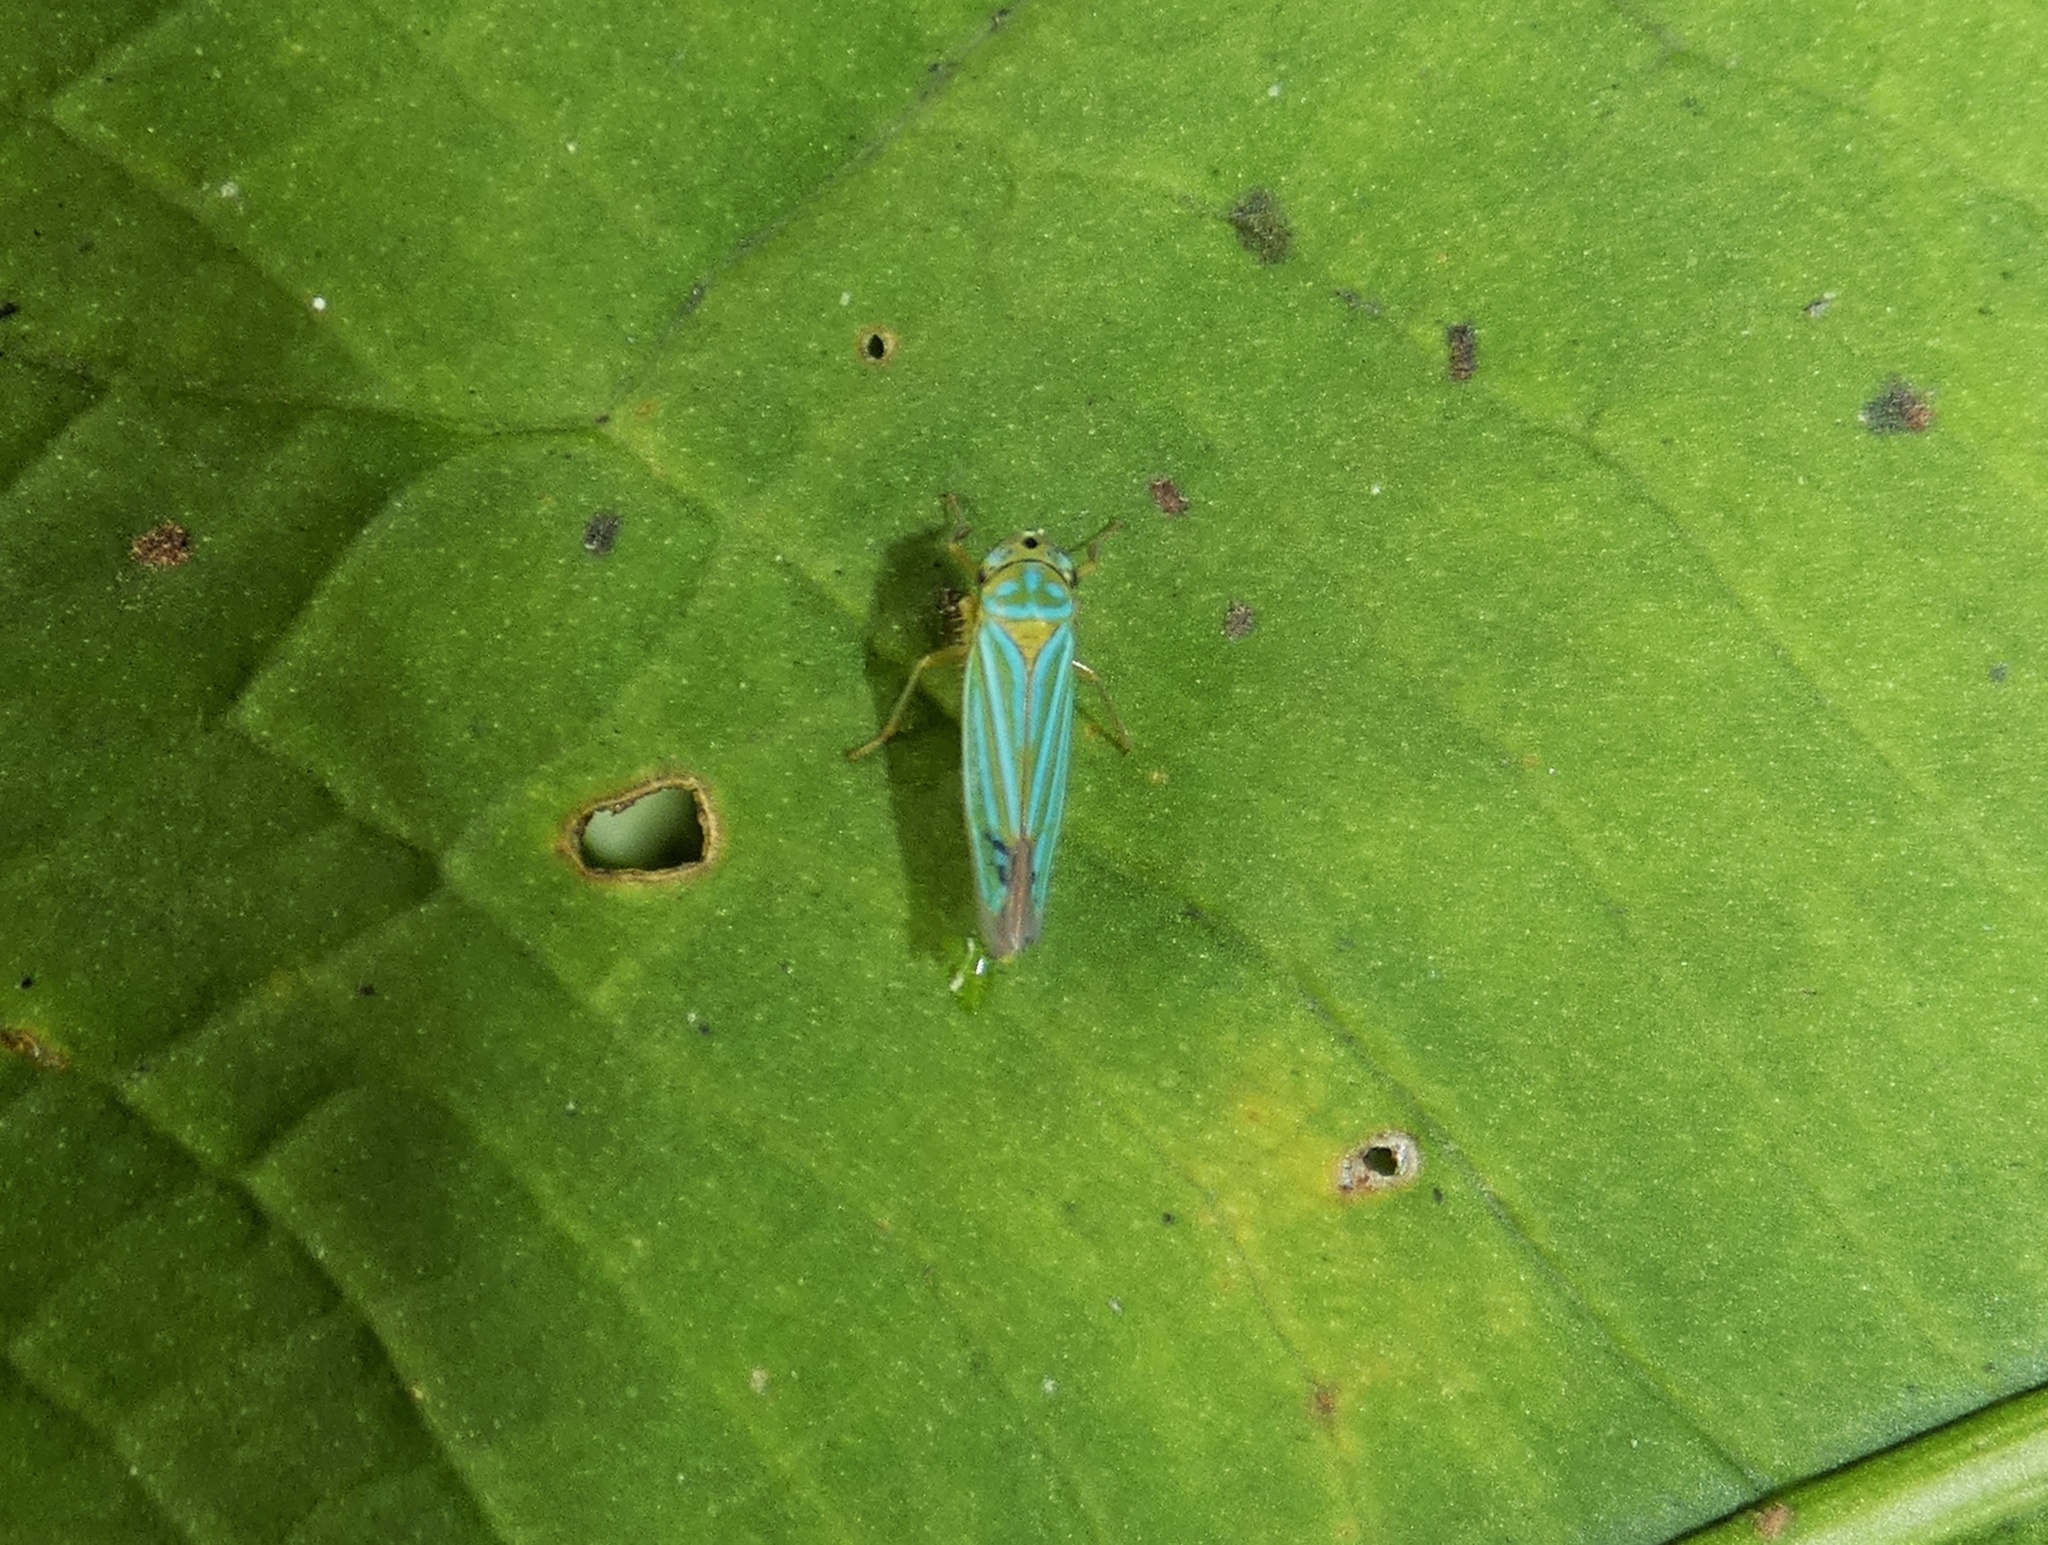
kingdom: Animalia
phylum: Arthropoda
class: Insecta
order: Hemiptera
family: Cicadellidae
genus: Chlorogonalia
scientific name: Chlorogonalia coeruleovittata
